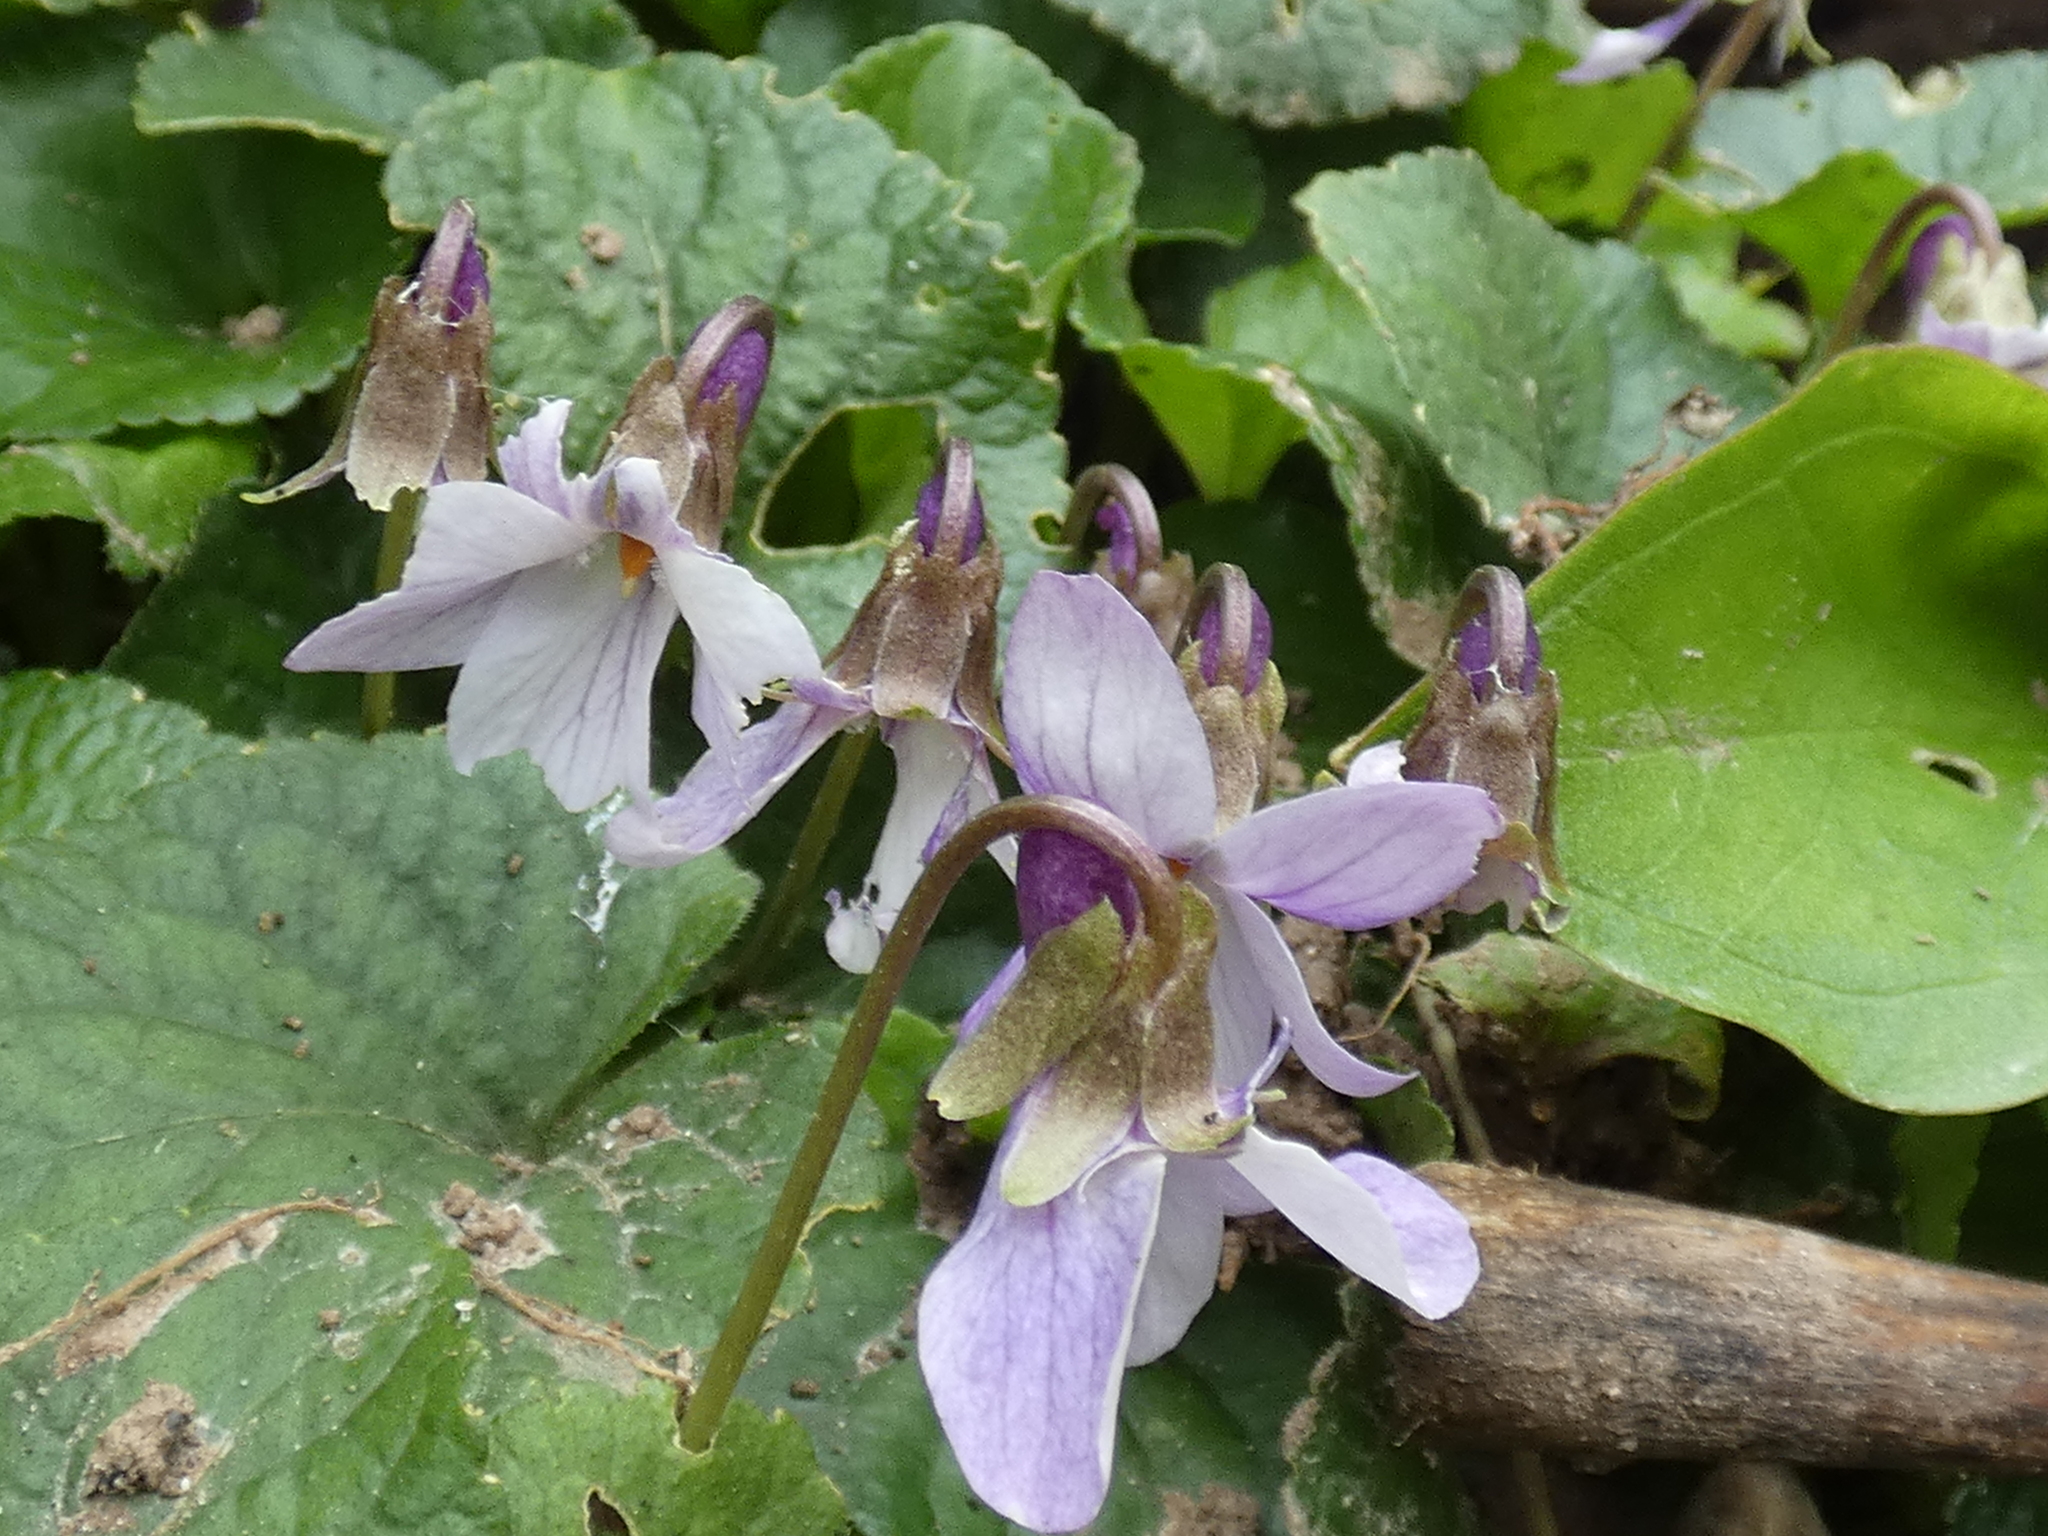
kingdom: Plantae
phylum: Tracheophyta
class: Magnoliopsida
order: Malpighiales
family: Violaceae
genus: Viola
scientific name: Viola odorata
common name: Sweet violet
